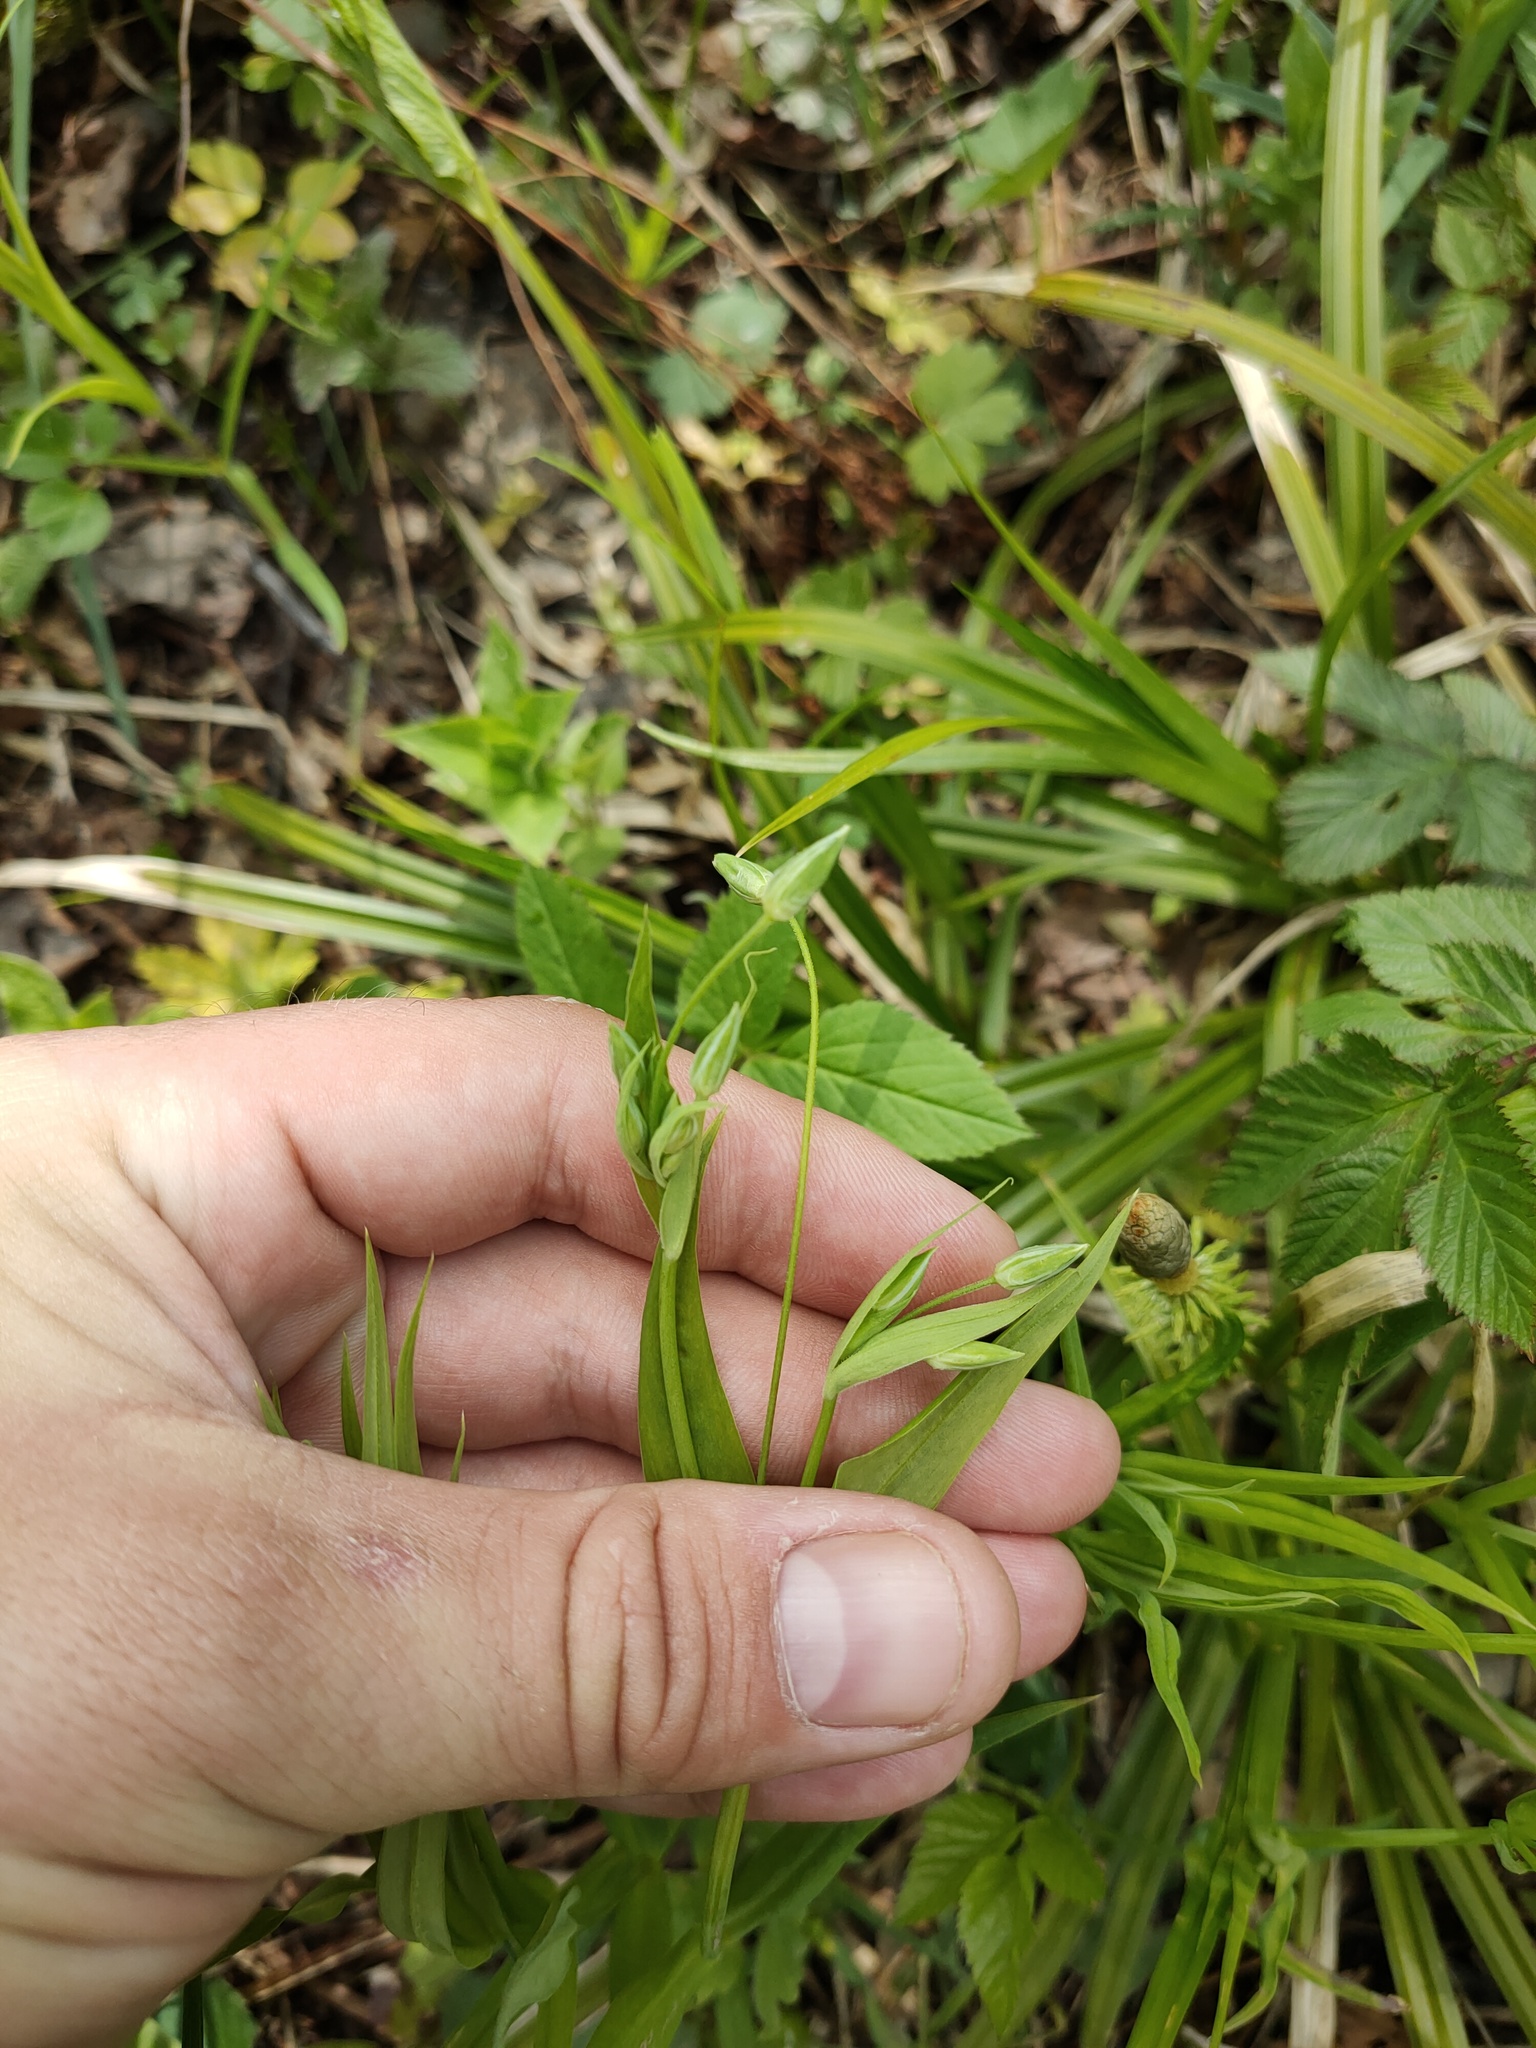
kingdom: Plantae
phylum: Tracheophyta
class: Magnoliopsida
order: Caryophyllales
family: Caryophyllaceae
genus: Rabelera
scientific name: Rabelera holostea
